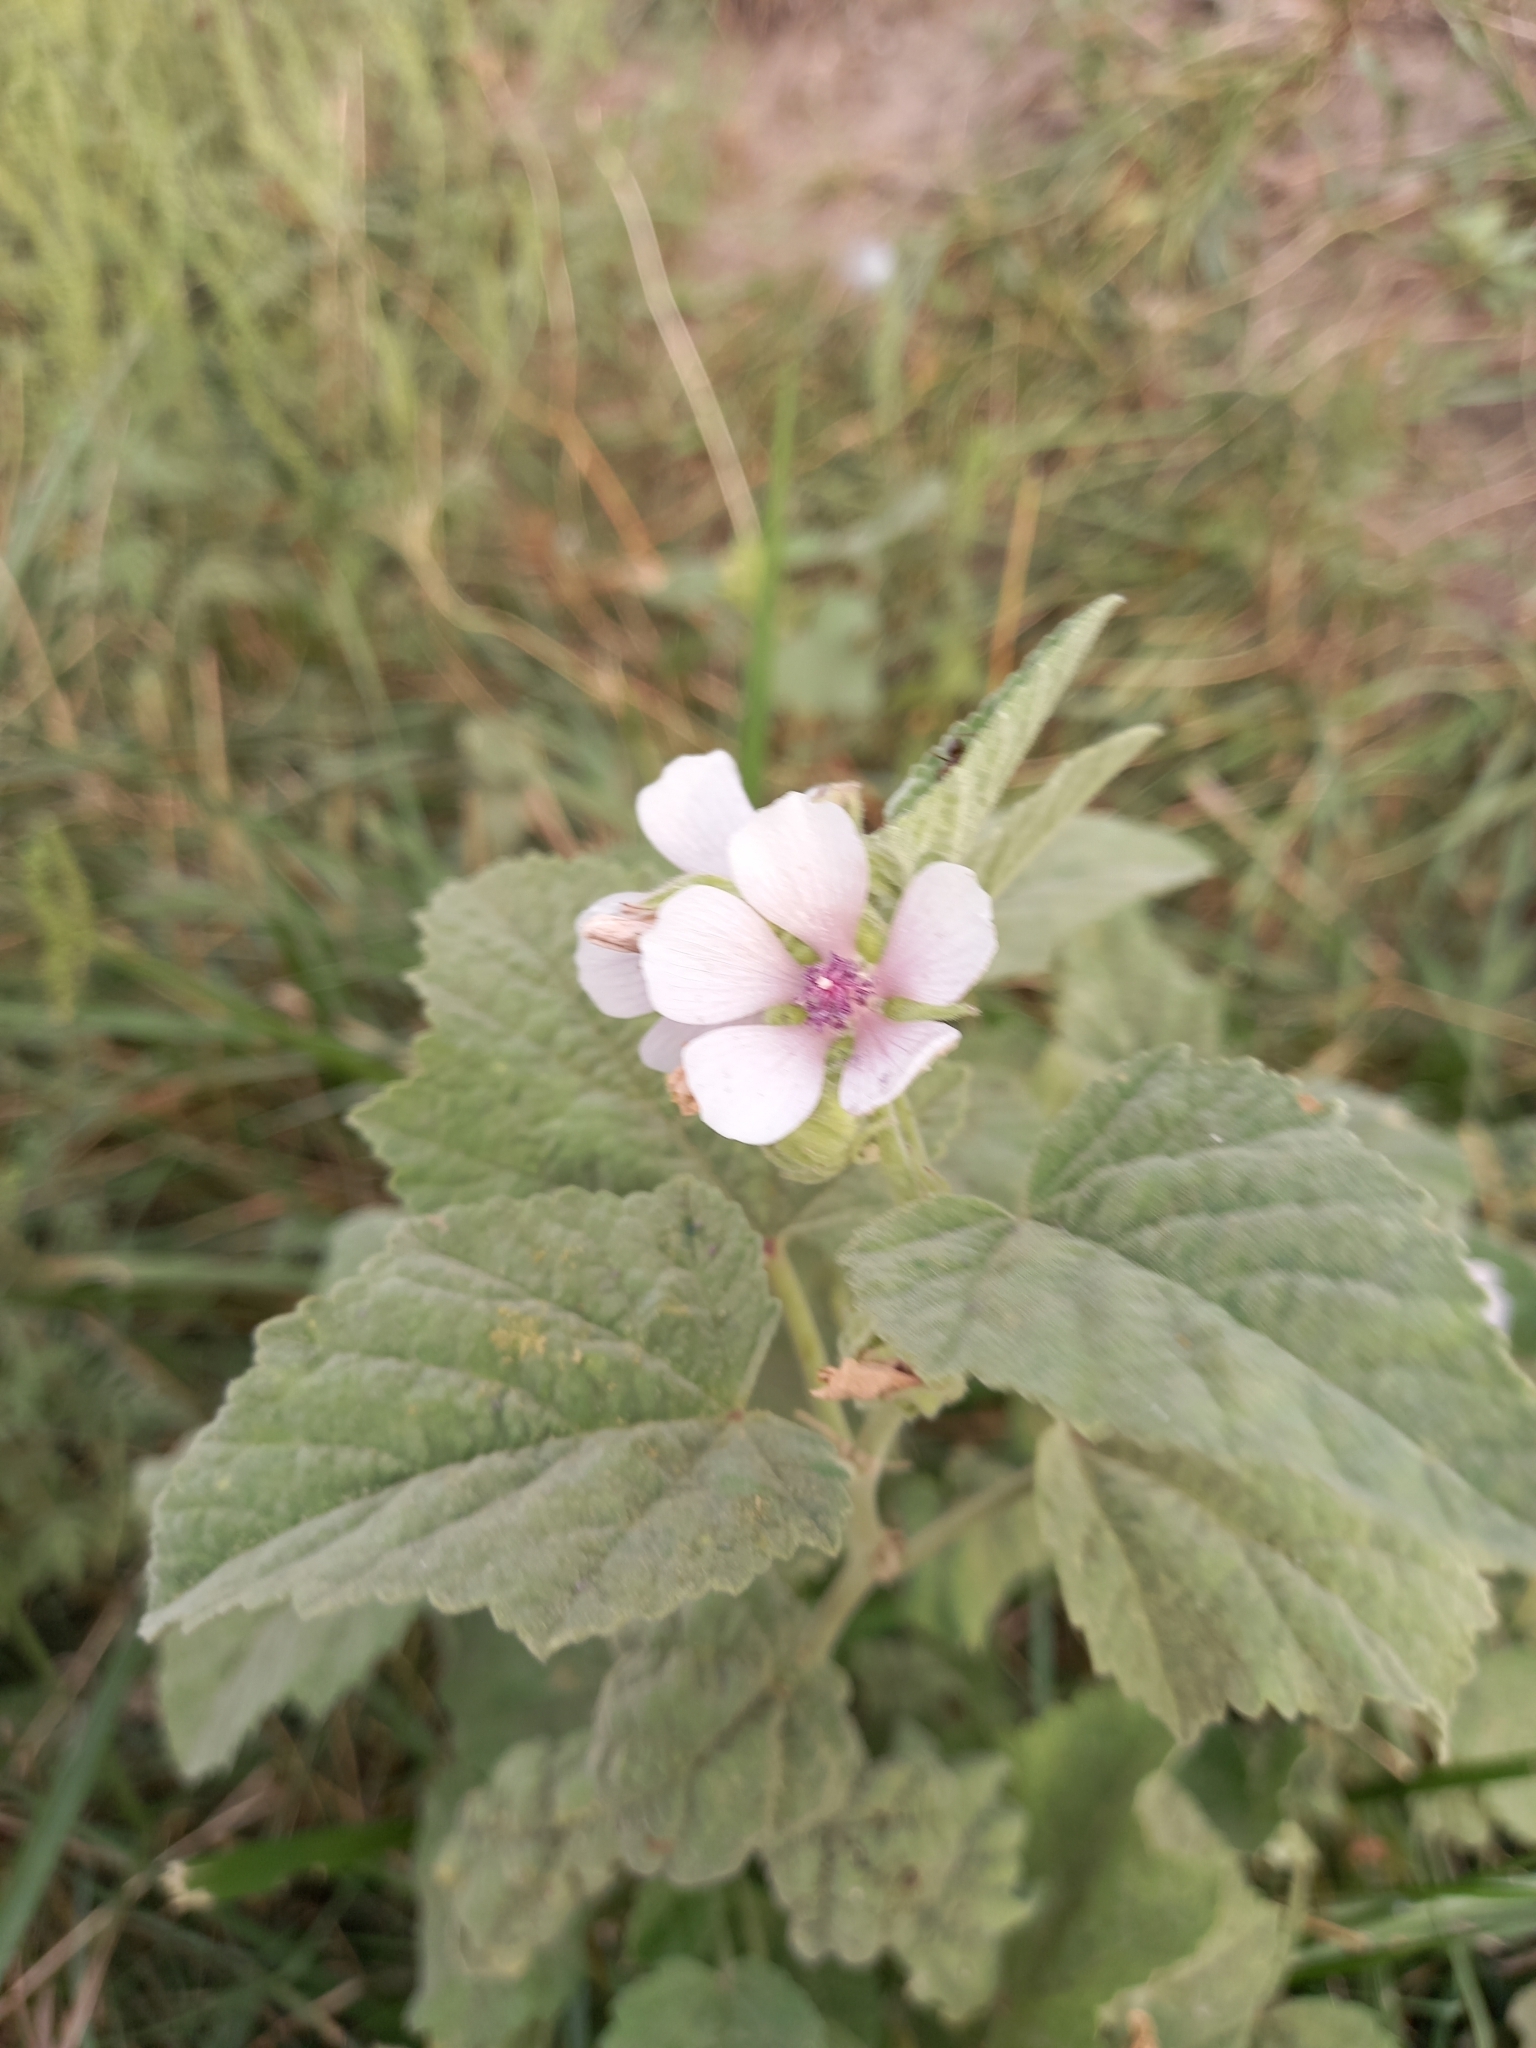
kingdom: Plantae
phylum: Tracheophyta
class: Magnoliopsida
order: Malvales
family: Malvaceae
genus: Althaea
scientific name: Althaea officinalis
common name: Marsh-mallow
